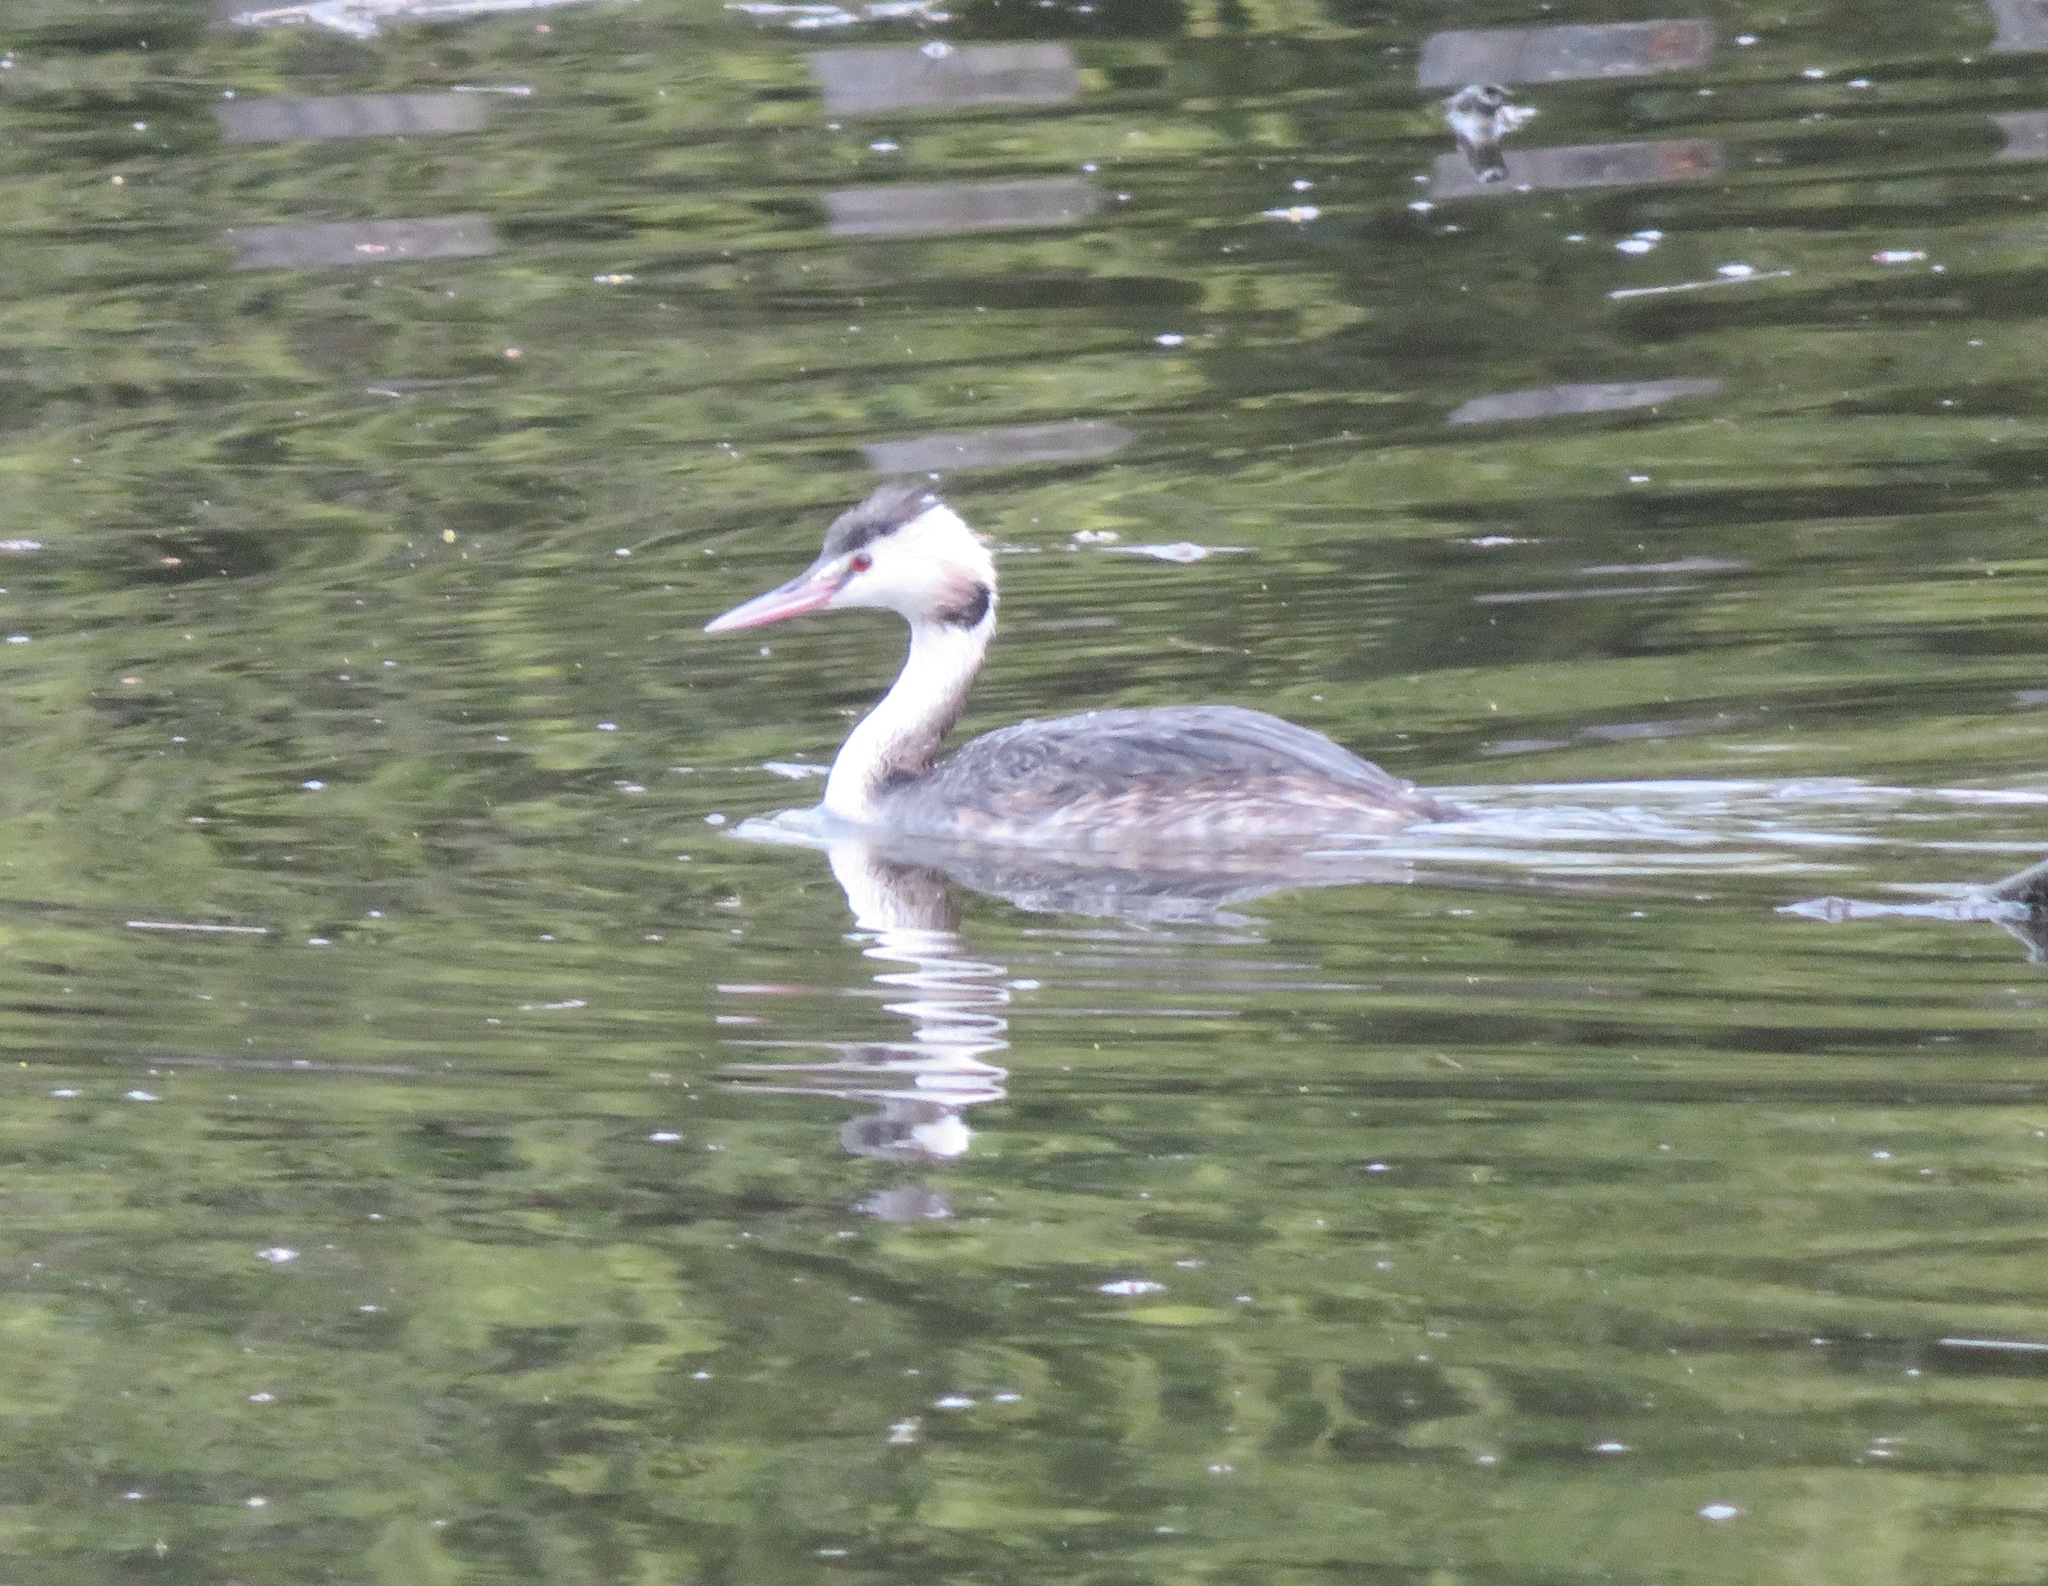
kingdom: Animalia
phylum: Chordata
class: Aves
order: Podicipediformes
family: Podicipedidae
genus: Podiceps
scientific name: Podiceps cristatus
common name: Great crested grebe
